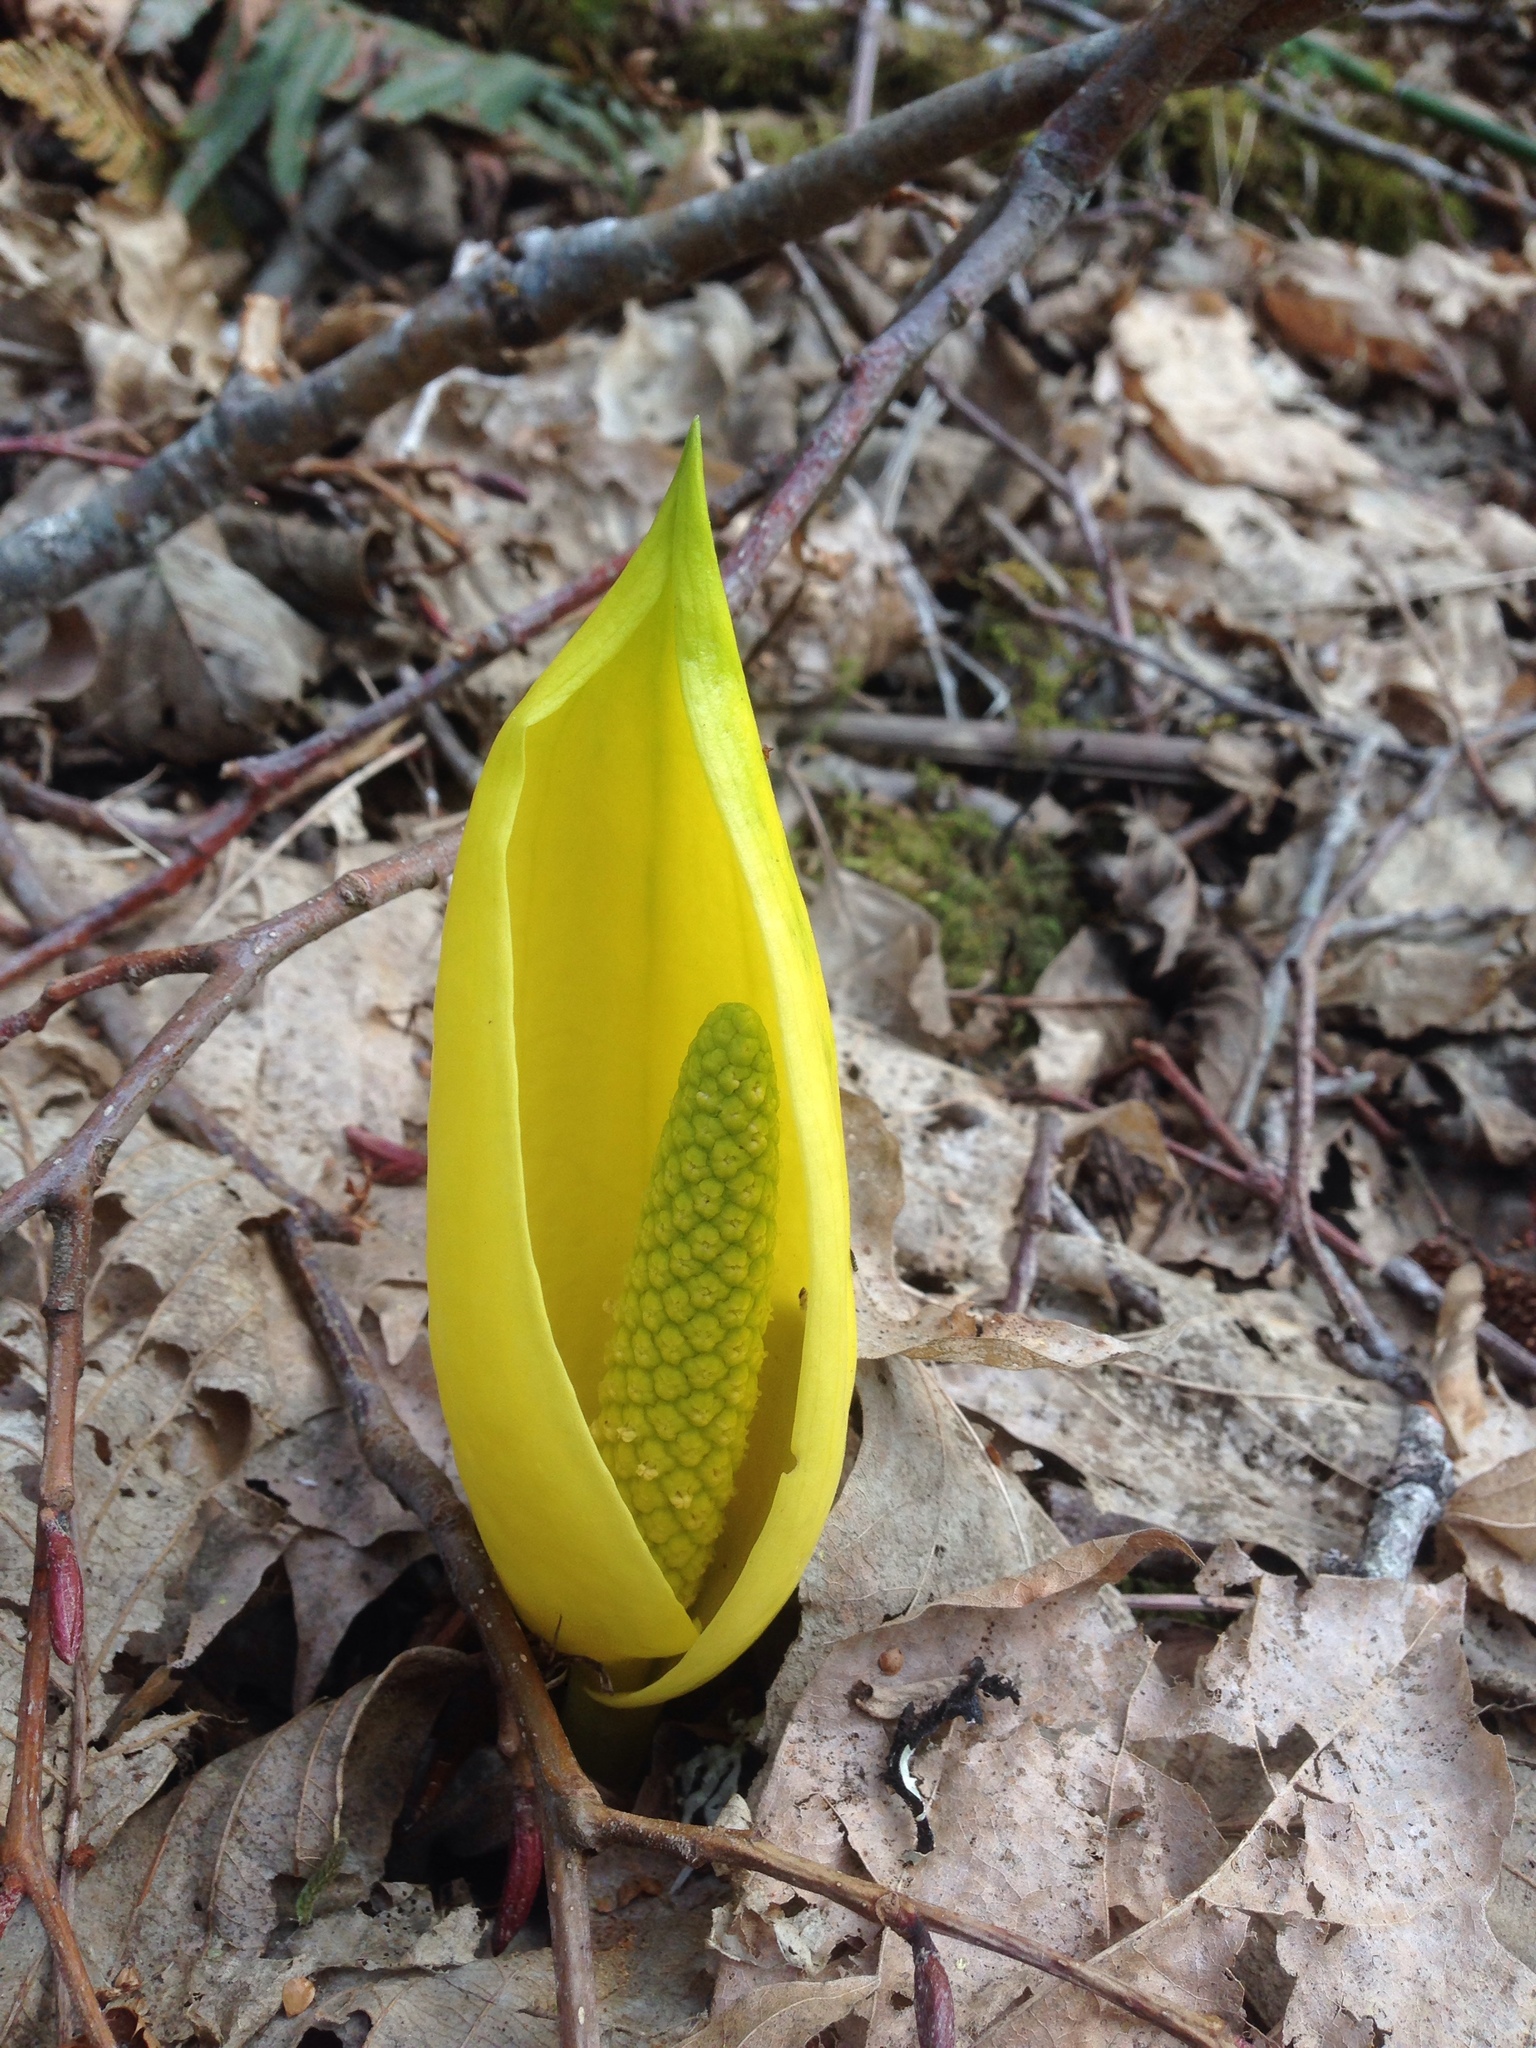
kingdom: Plantae
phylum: Tracheophyta
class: Liliopsida
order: Alismatales
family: Araceae
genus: Lysichiton
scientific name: Lysichiton americanus
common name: American skunk cabbage
